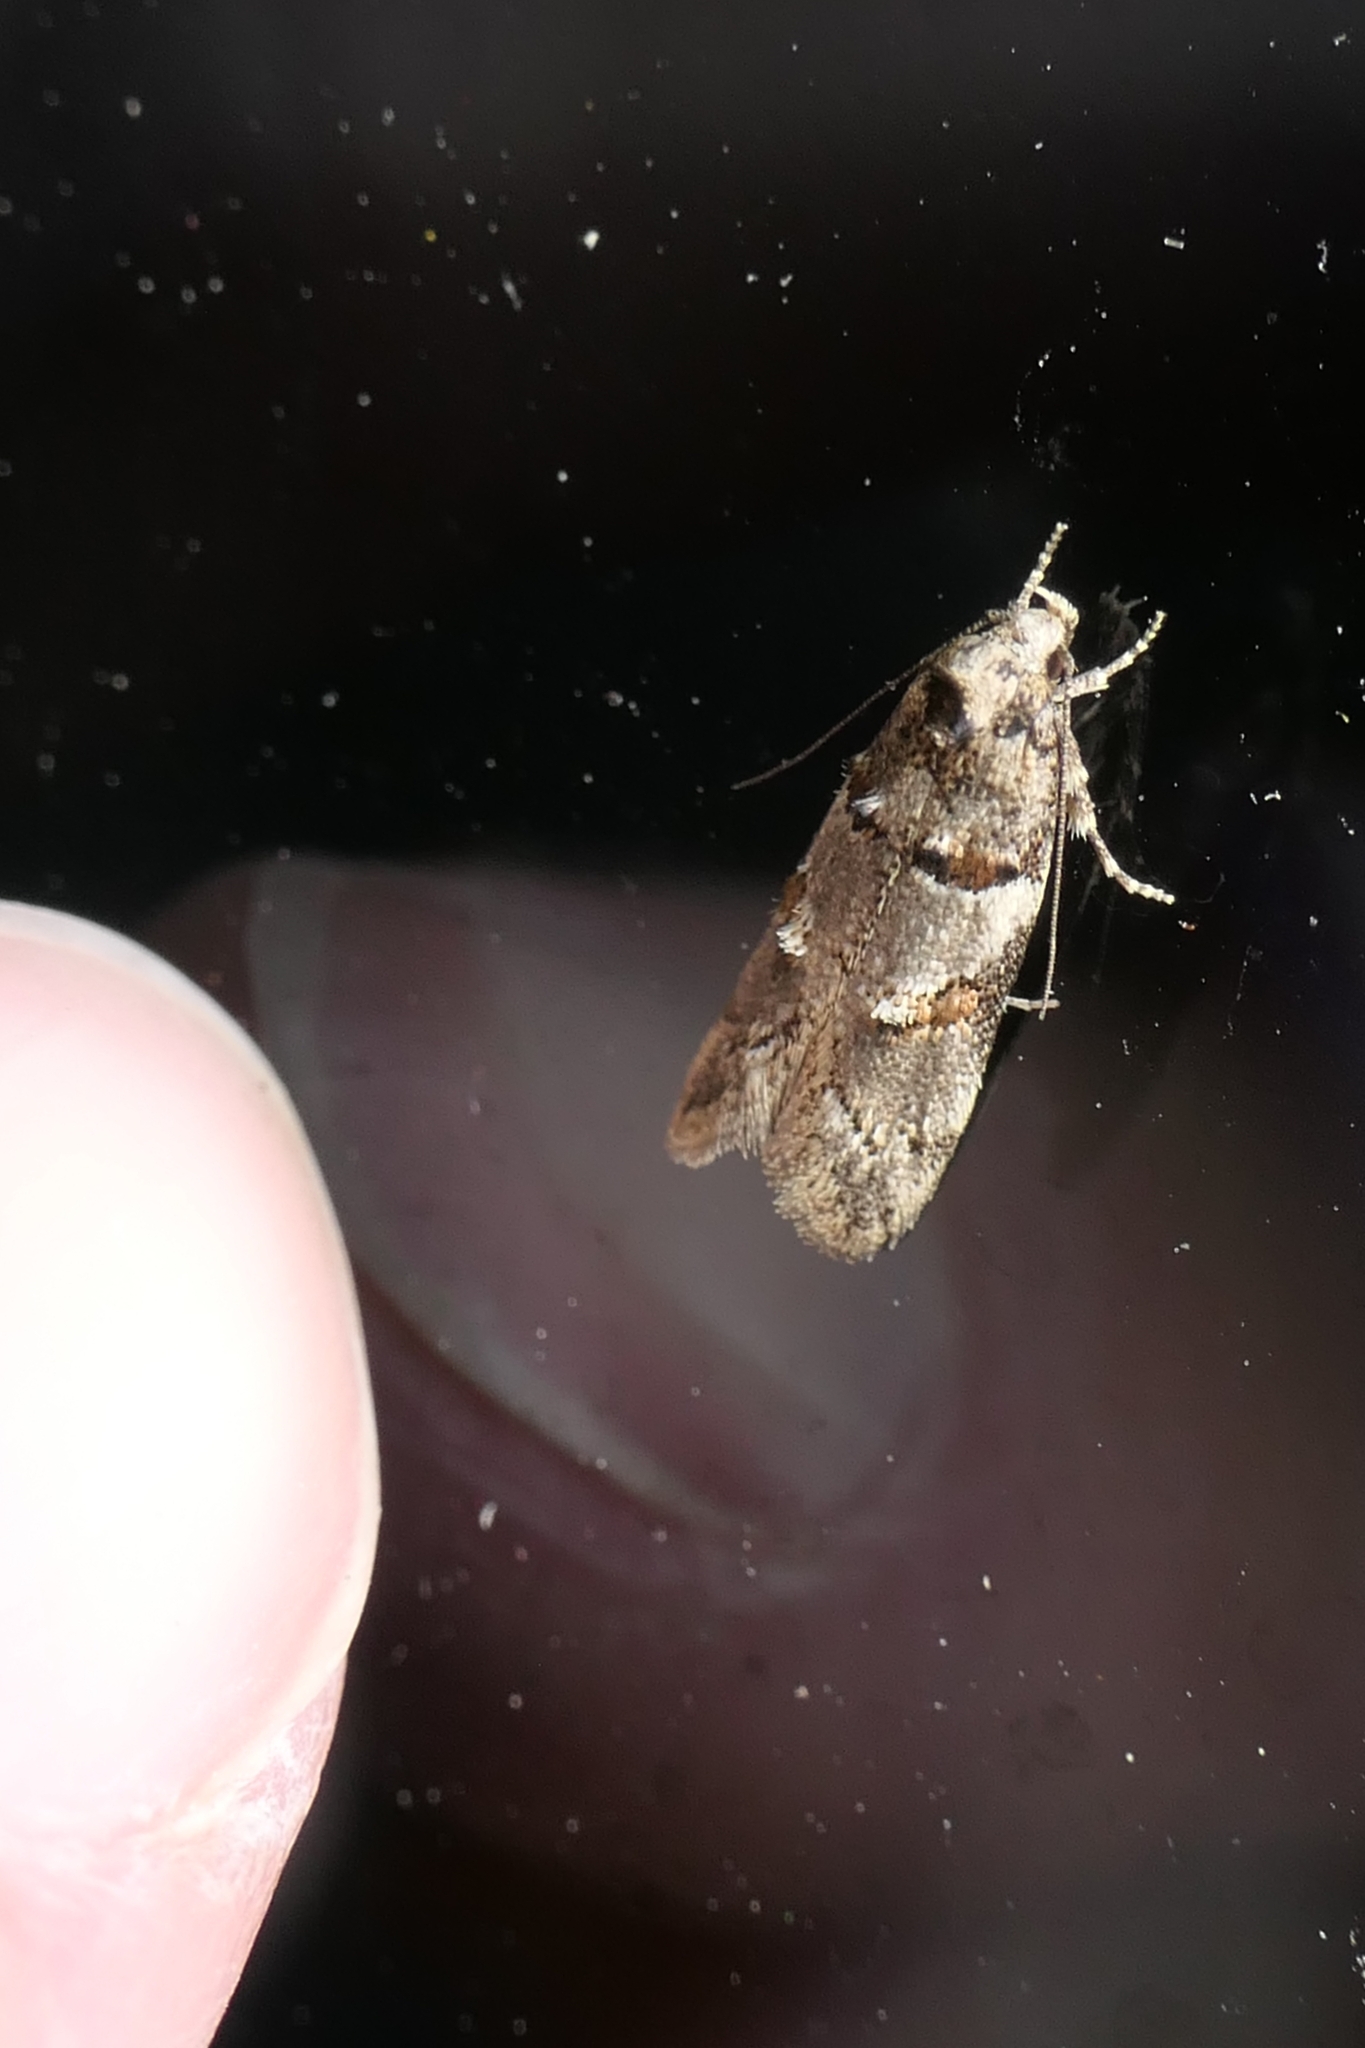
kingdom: Animalia
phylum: Arthropoda
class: Insecta
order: Lepidoptera
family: Oecophoridae
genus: Trachypepla
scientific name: Trachypepla contritella
